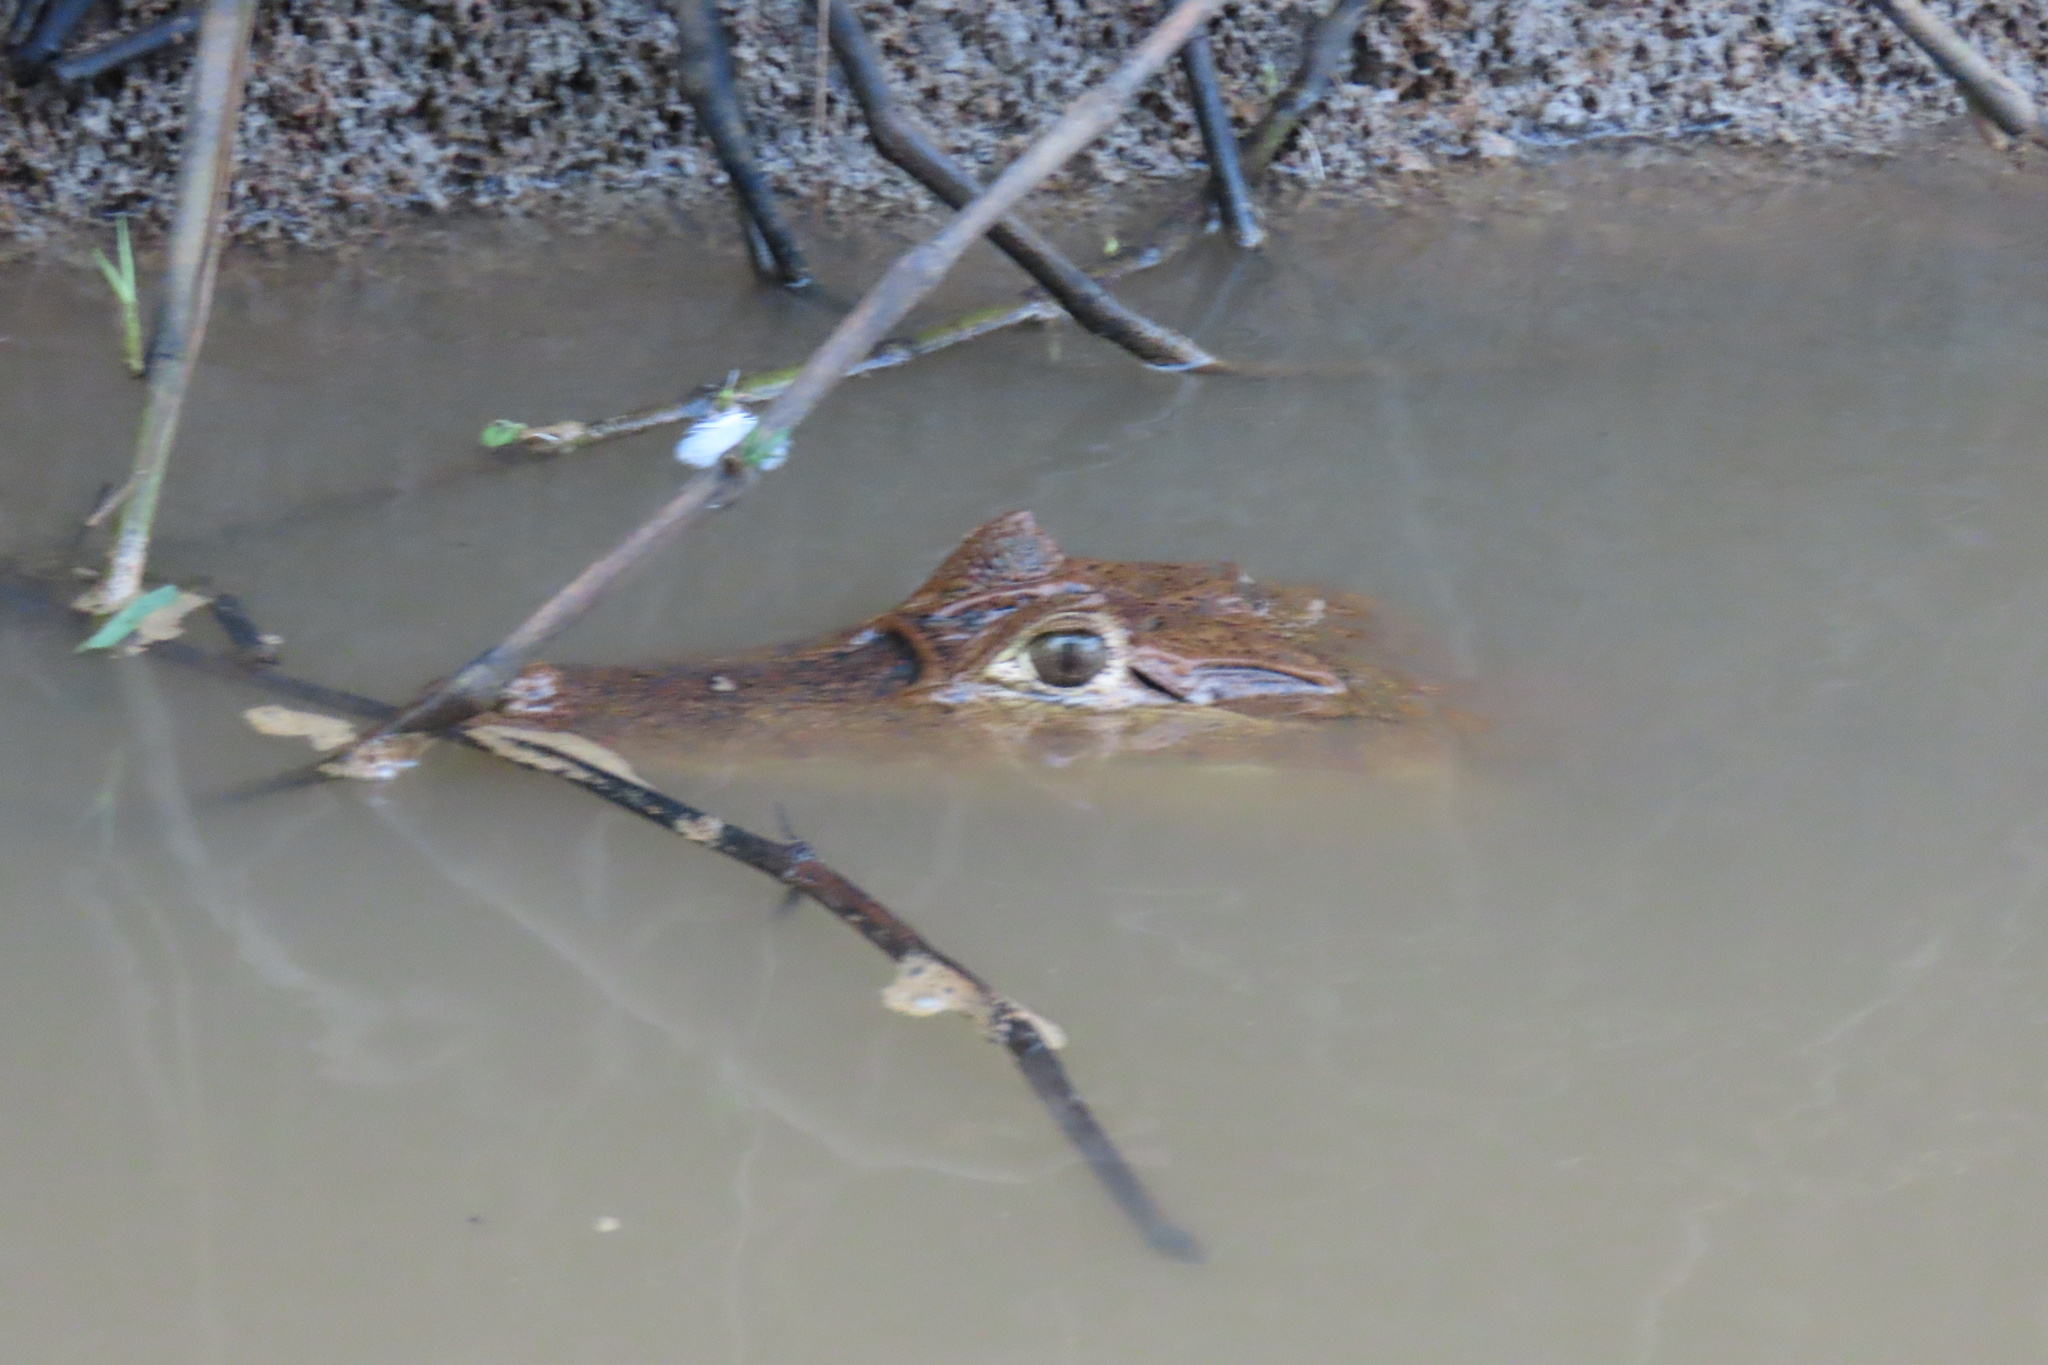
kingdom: Animalia
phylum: Chordata
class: Crocodylia
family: Alligatoridae
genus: Caiman
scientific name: Caiman crocodilus
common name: Common caiman
